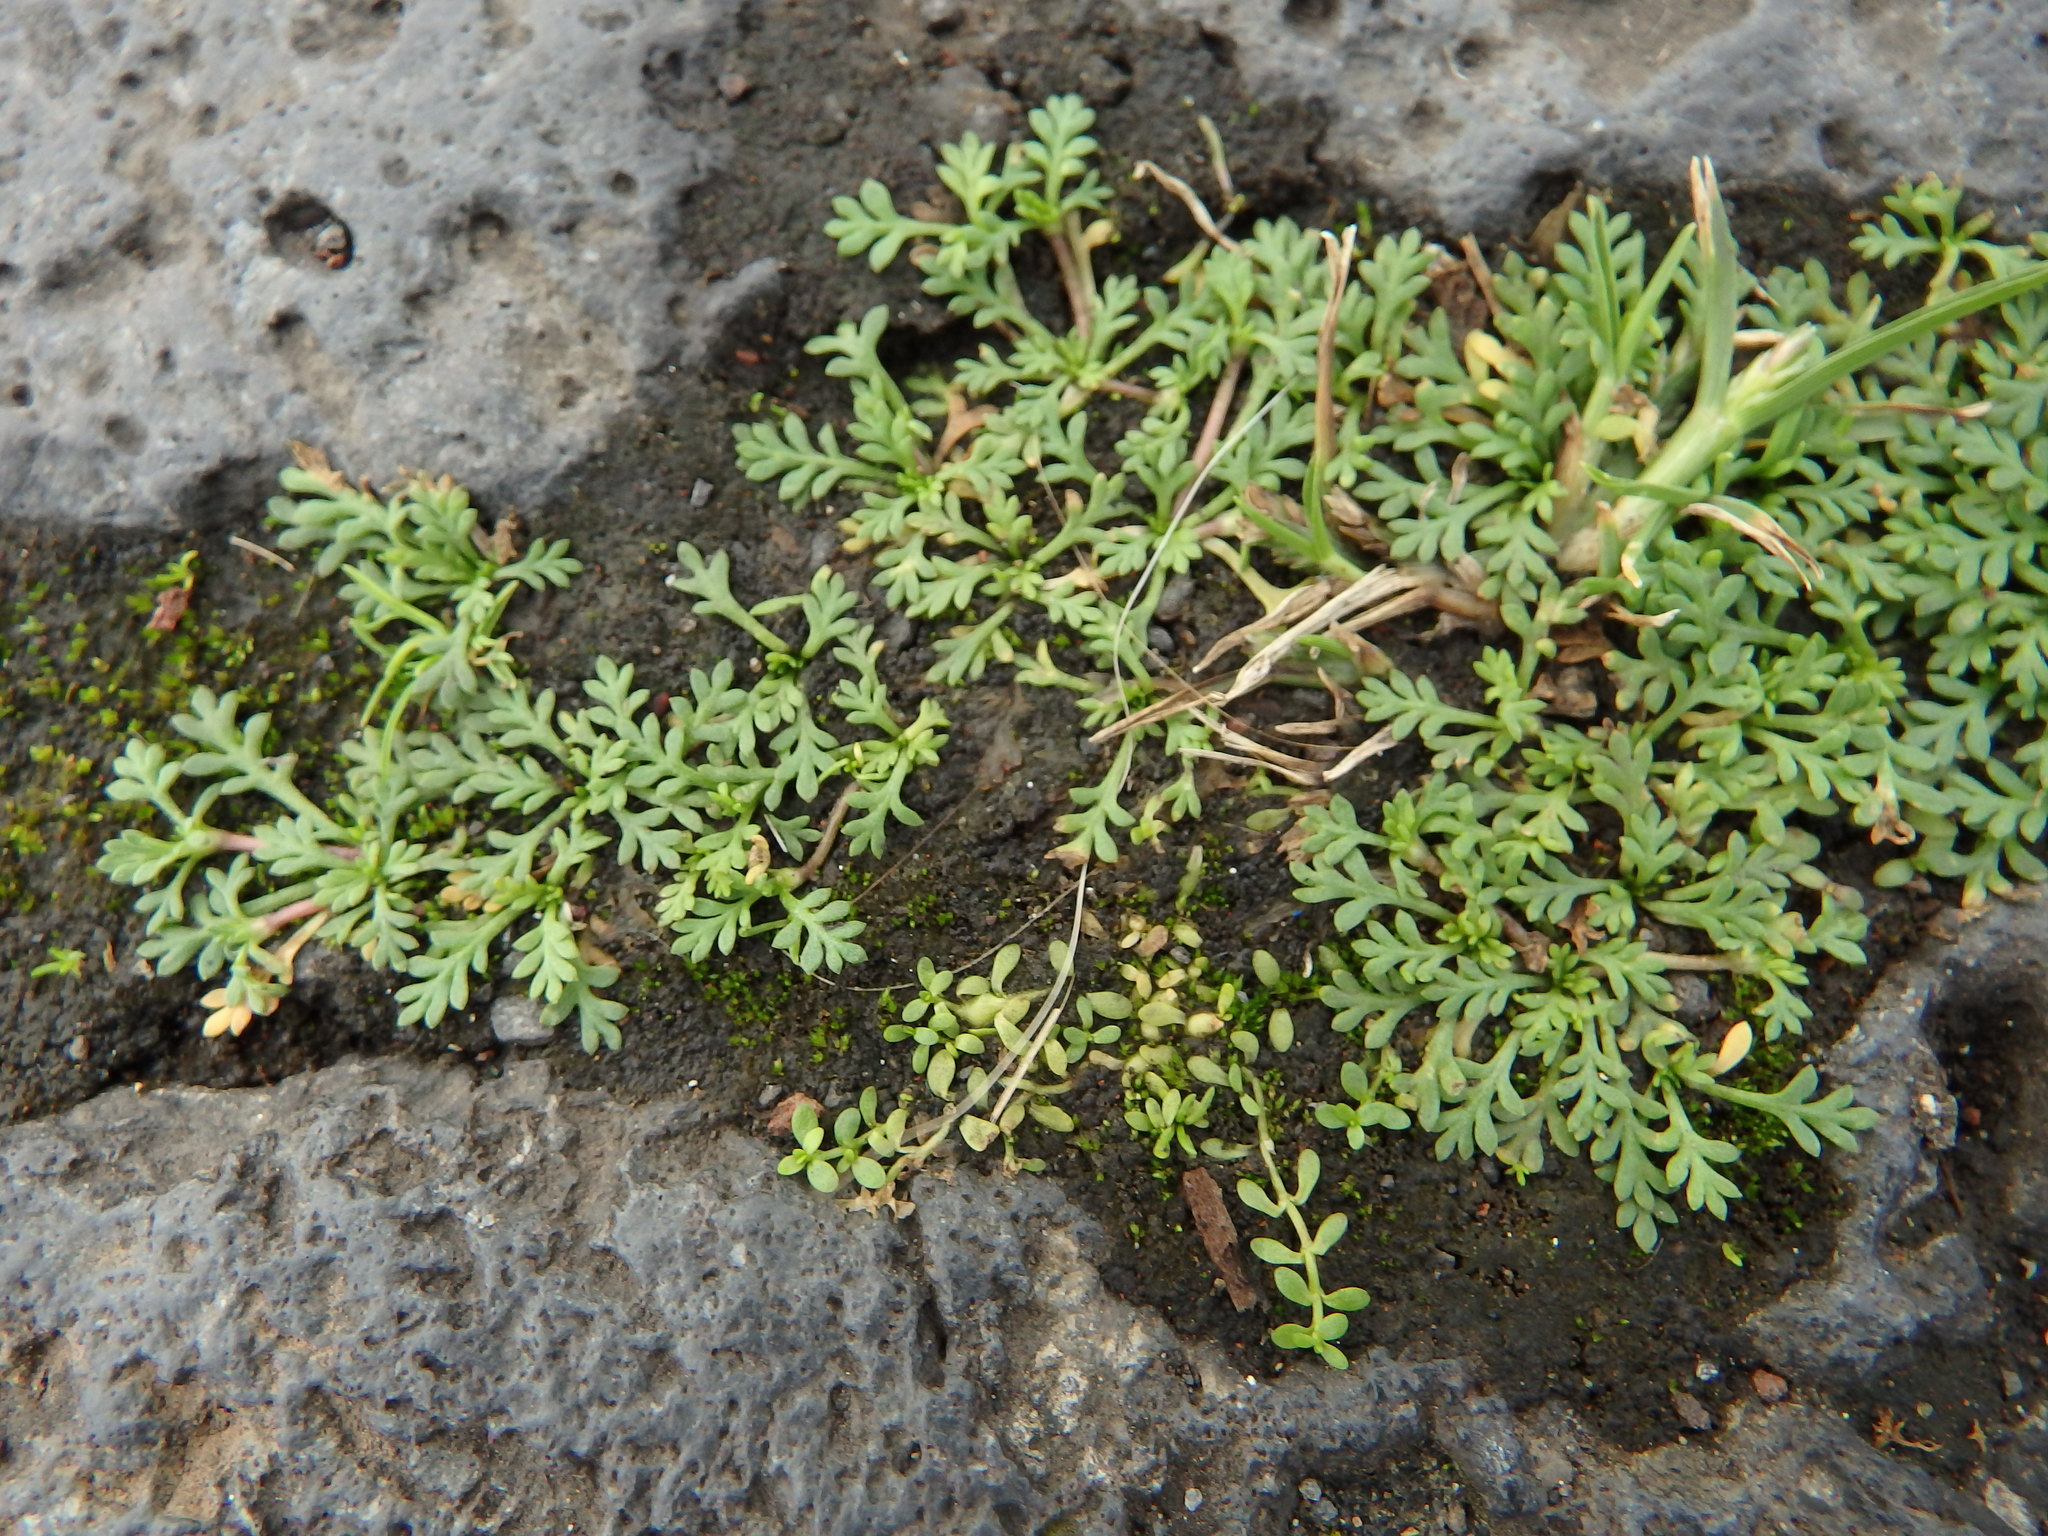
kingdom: Plantae
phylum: Tracheophyta
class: Magnoliopsida
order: Asterales
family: Asteraceae
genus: Soliva
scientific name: Soliva stolonifera
